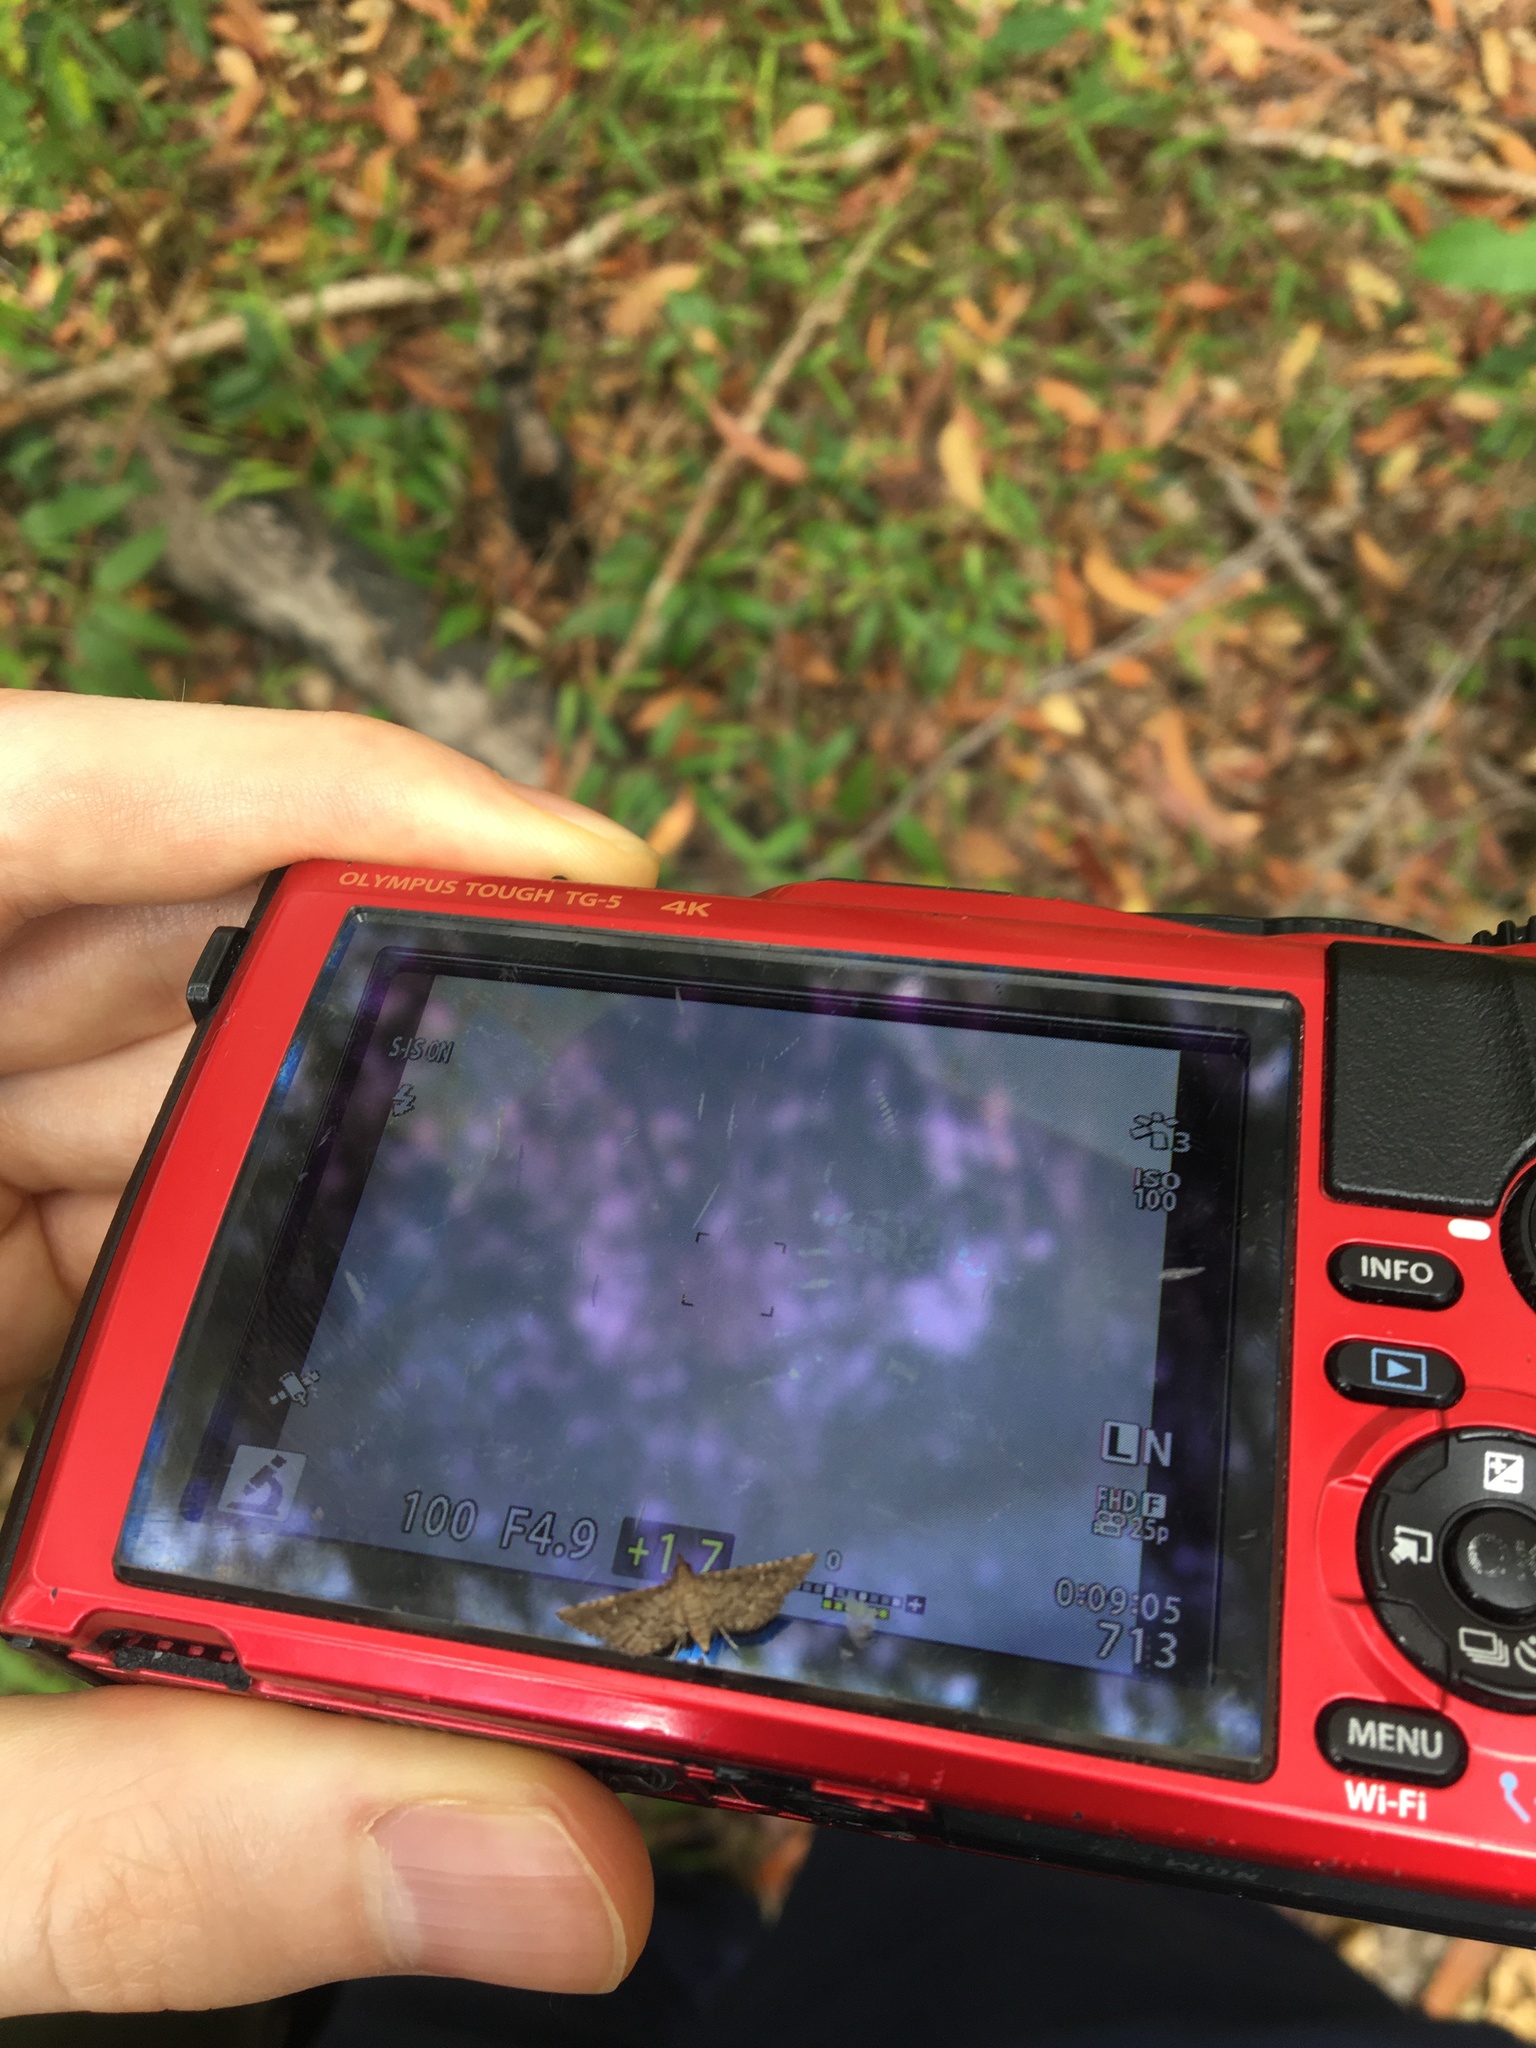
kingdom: Animalia
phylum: Arthropoda
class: Insecta
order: Lepidoptera
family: Crambidae
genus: Metasia
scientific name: Metasia capnochroa
